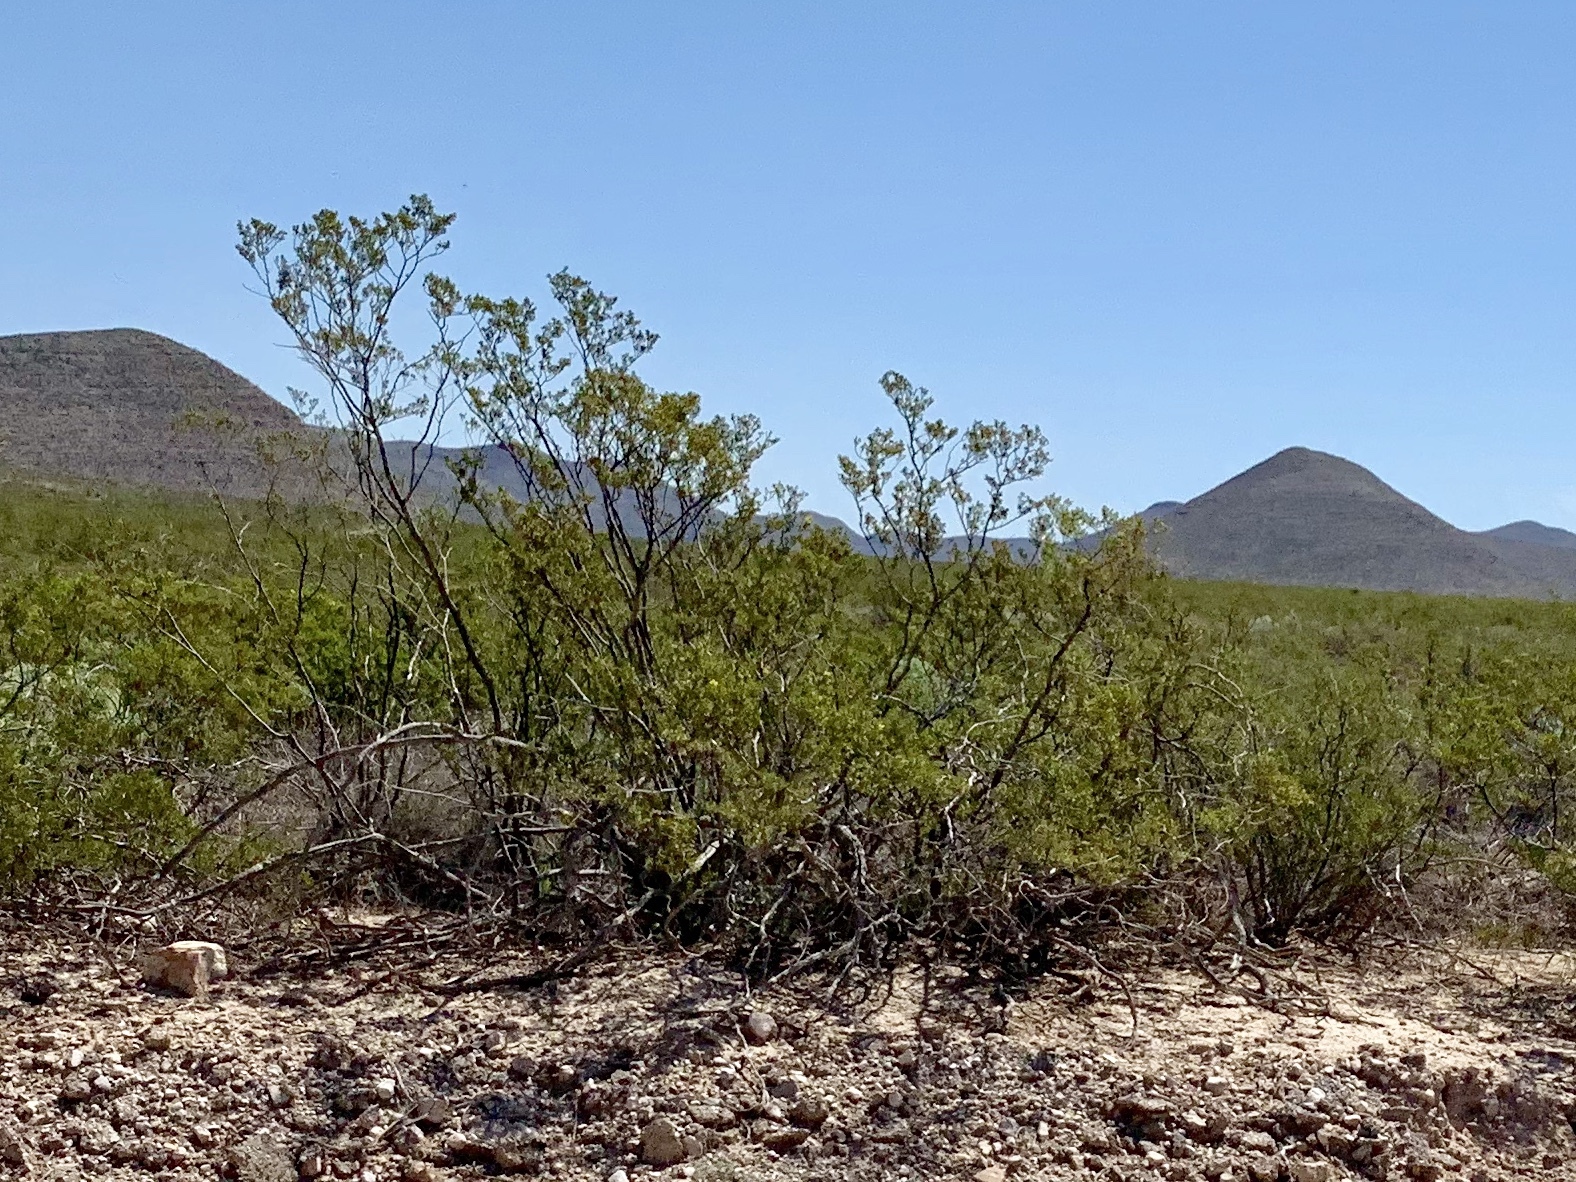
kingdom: Plantae
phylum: Tracheophyta
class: Magnoliopsida
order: Zygophyllales
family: Zygophyllaceae
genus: Larrea
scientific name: Larrea tridentata
